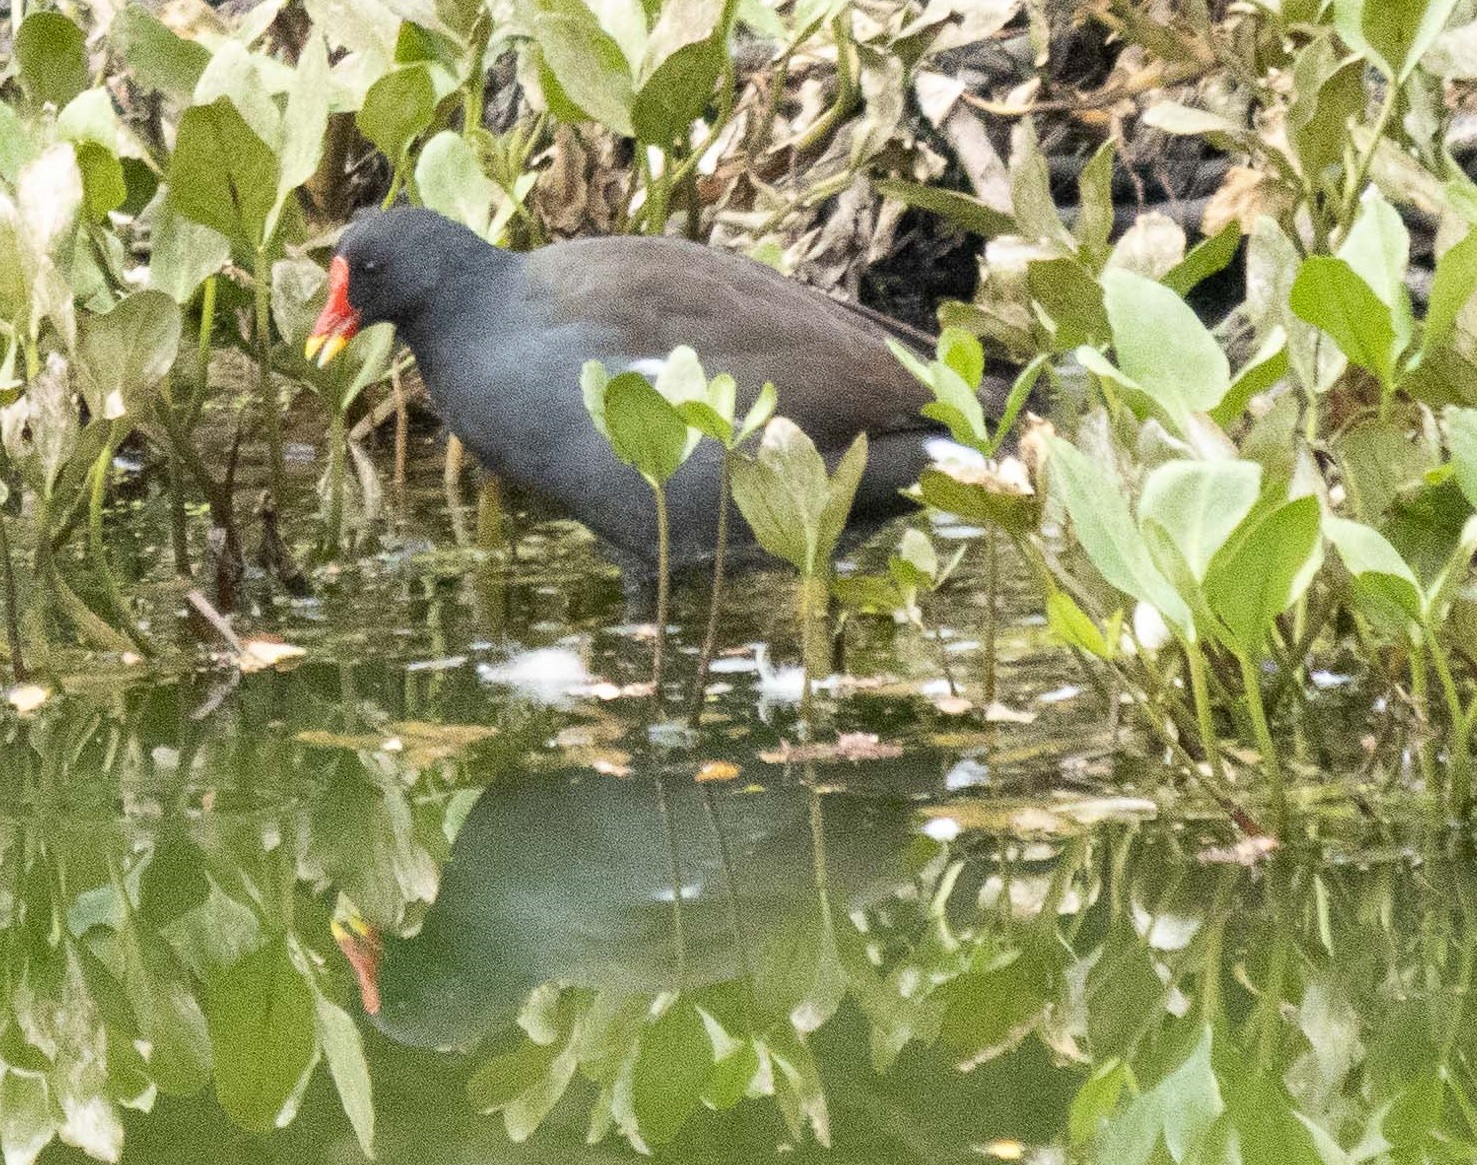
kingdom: Animalia
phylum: Chordata
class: Aves
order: Gruiformes
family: Rallidae
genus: Gallinula
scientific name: Gallinula chloropus
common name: Common moorhen
